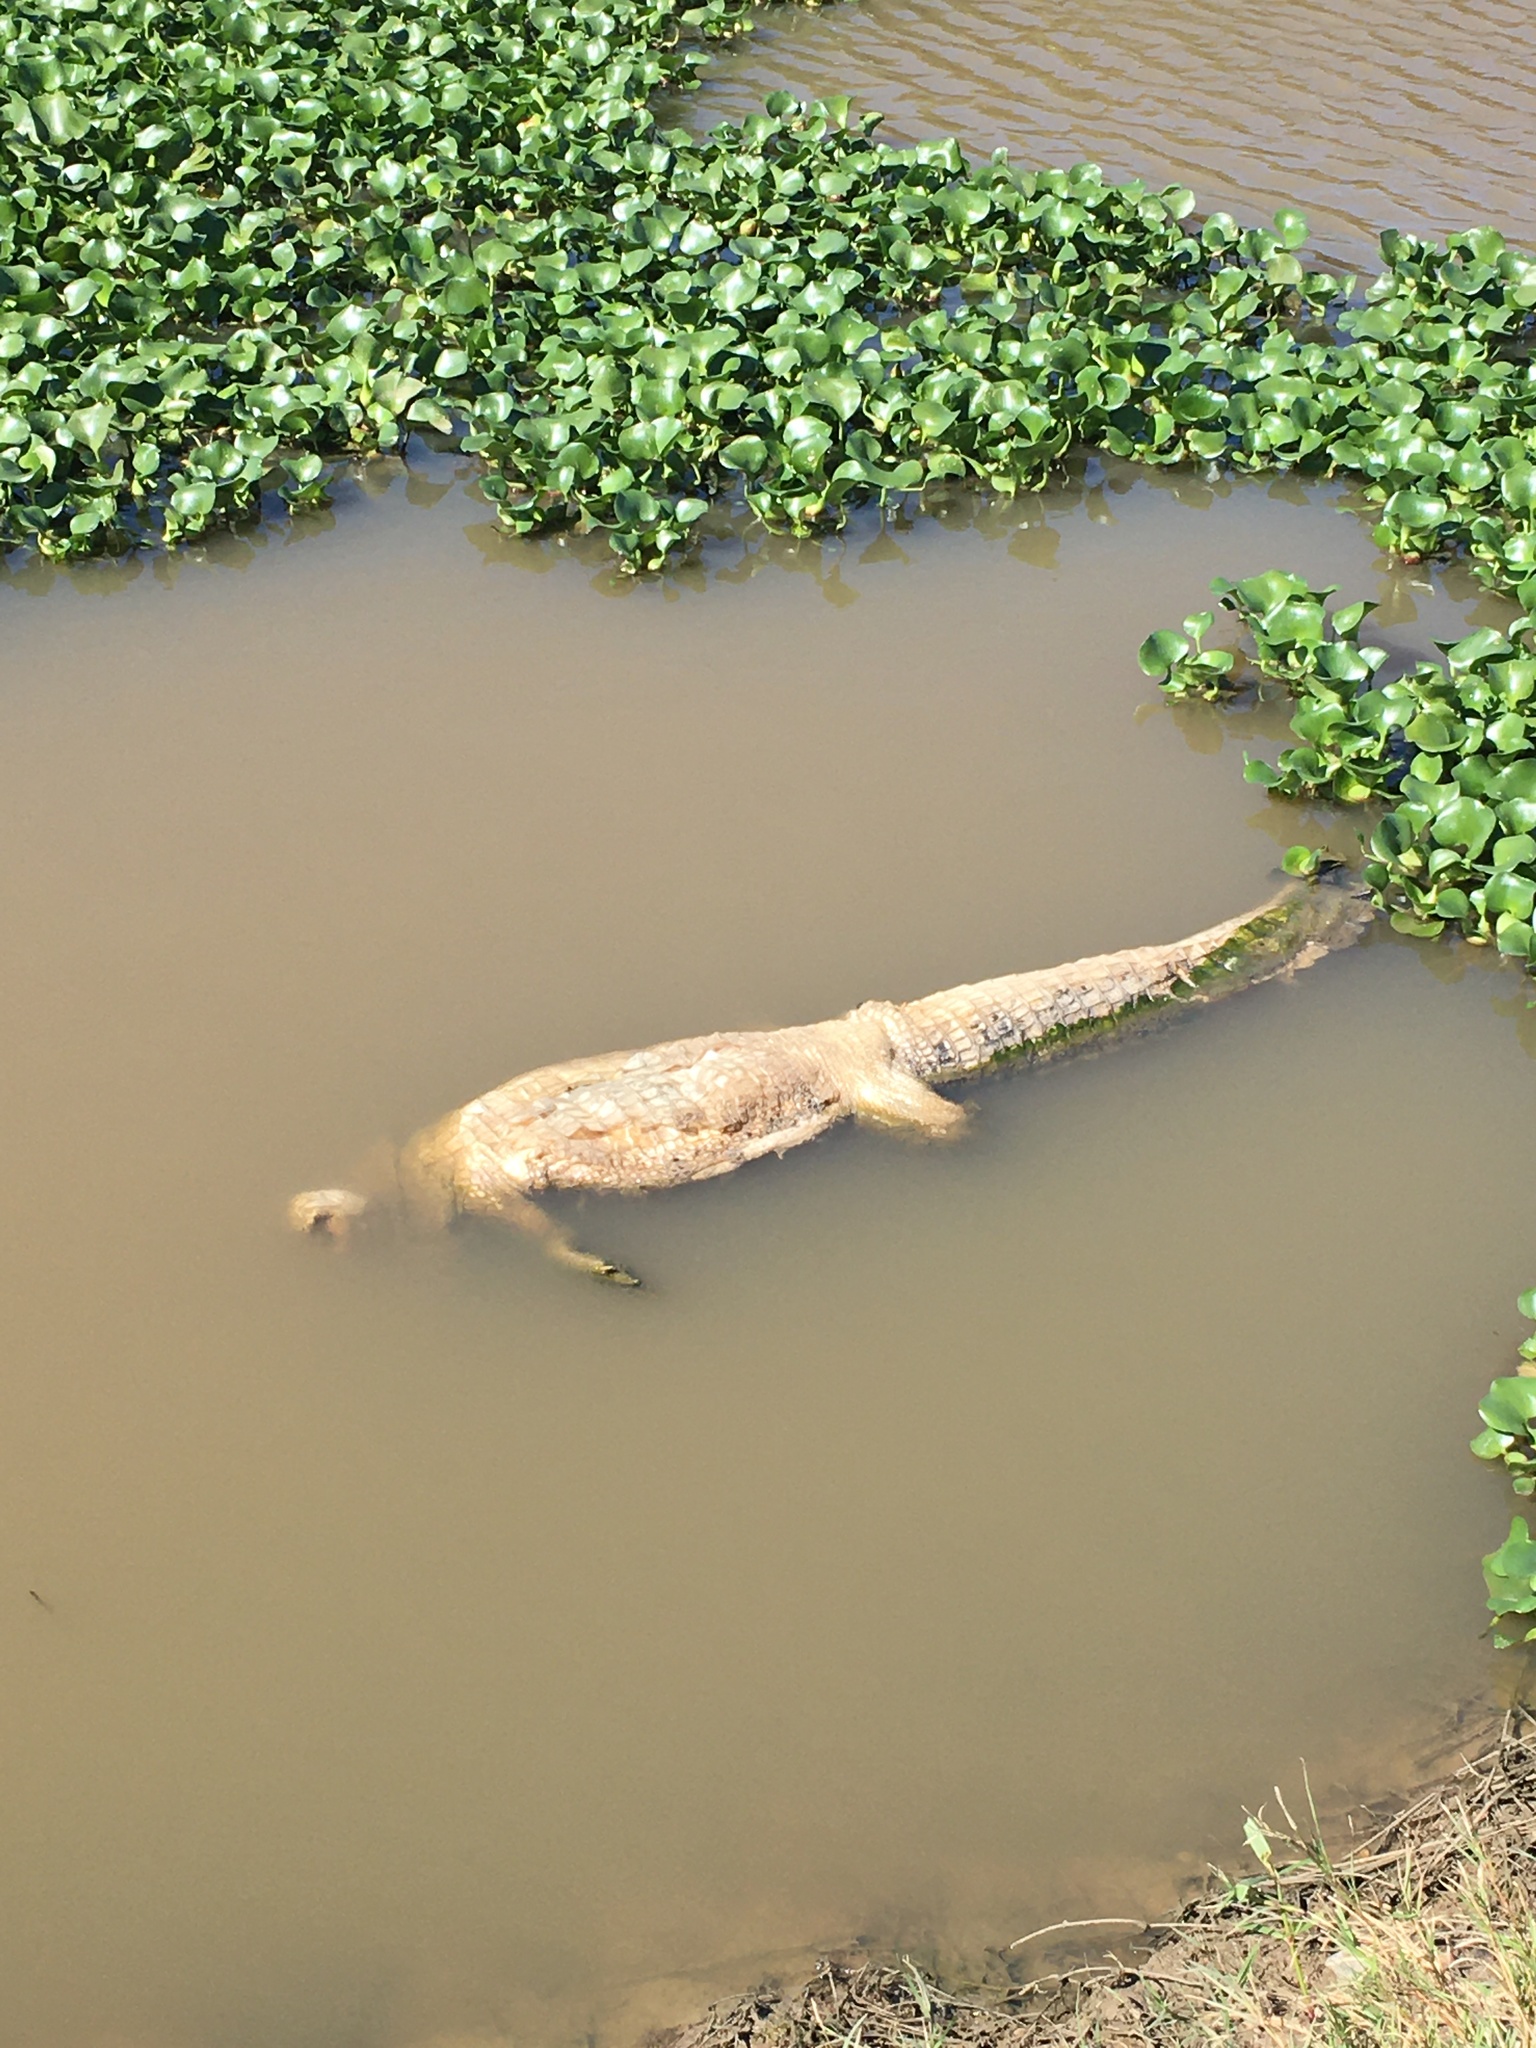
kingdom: Animalia
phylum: Chordata
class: Crocodylia
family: Alligatoridae
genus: Alligator
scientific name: Alligator mississippiensis
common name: American alligator
